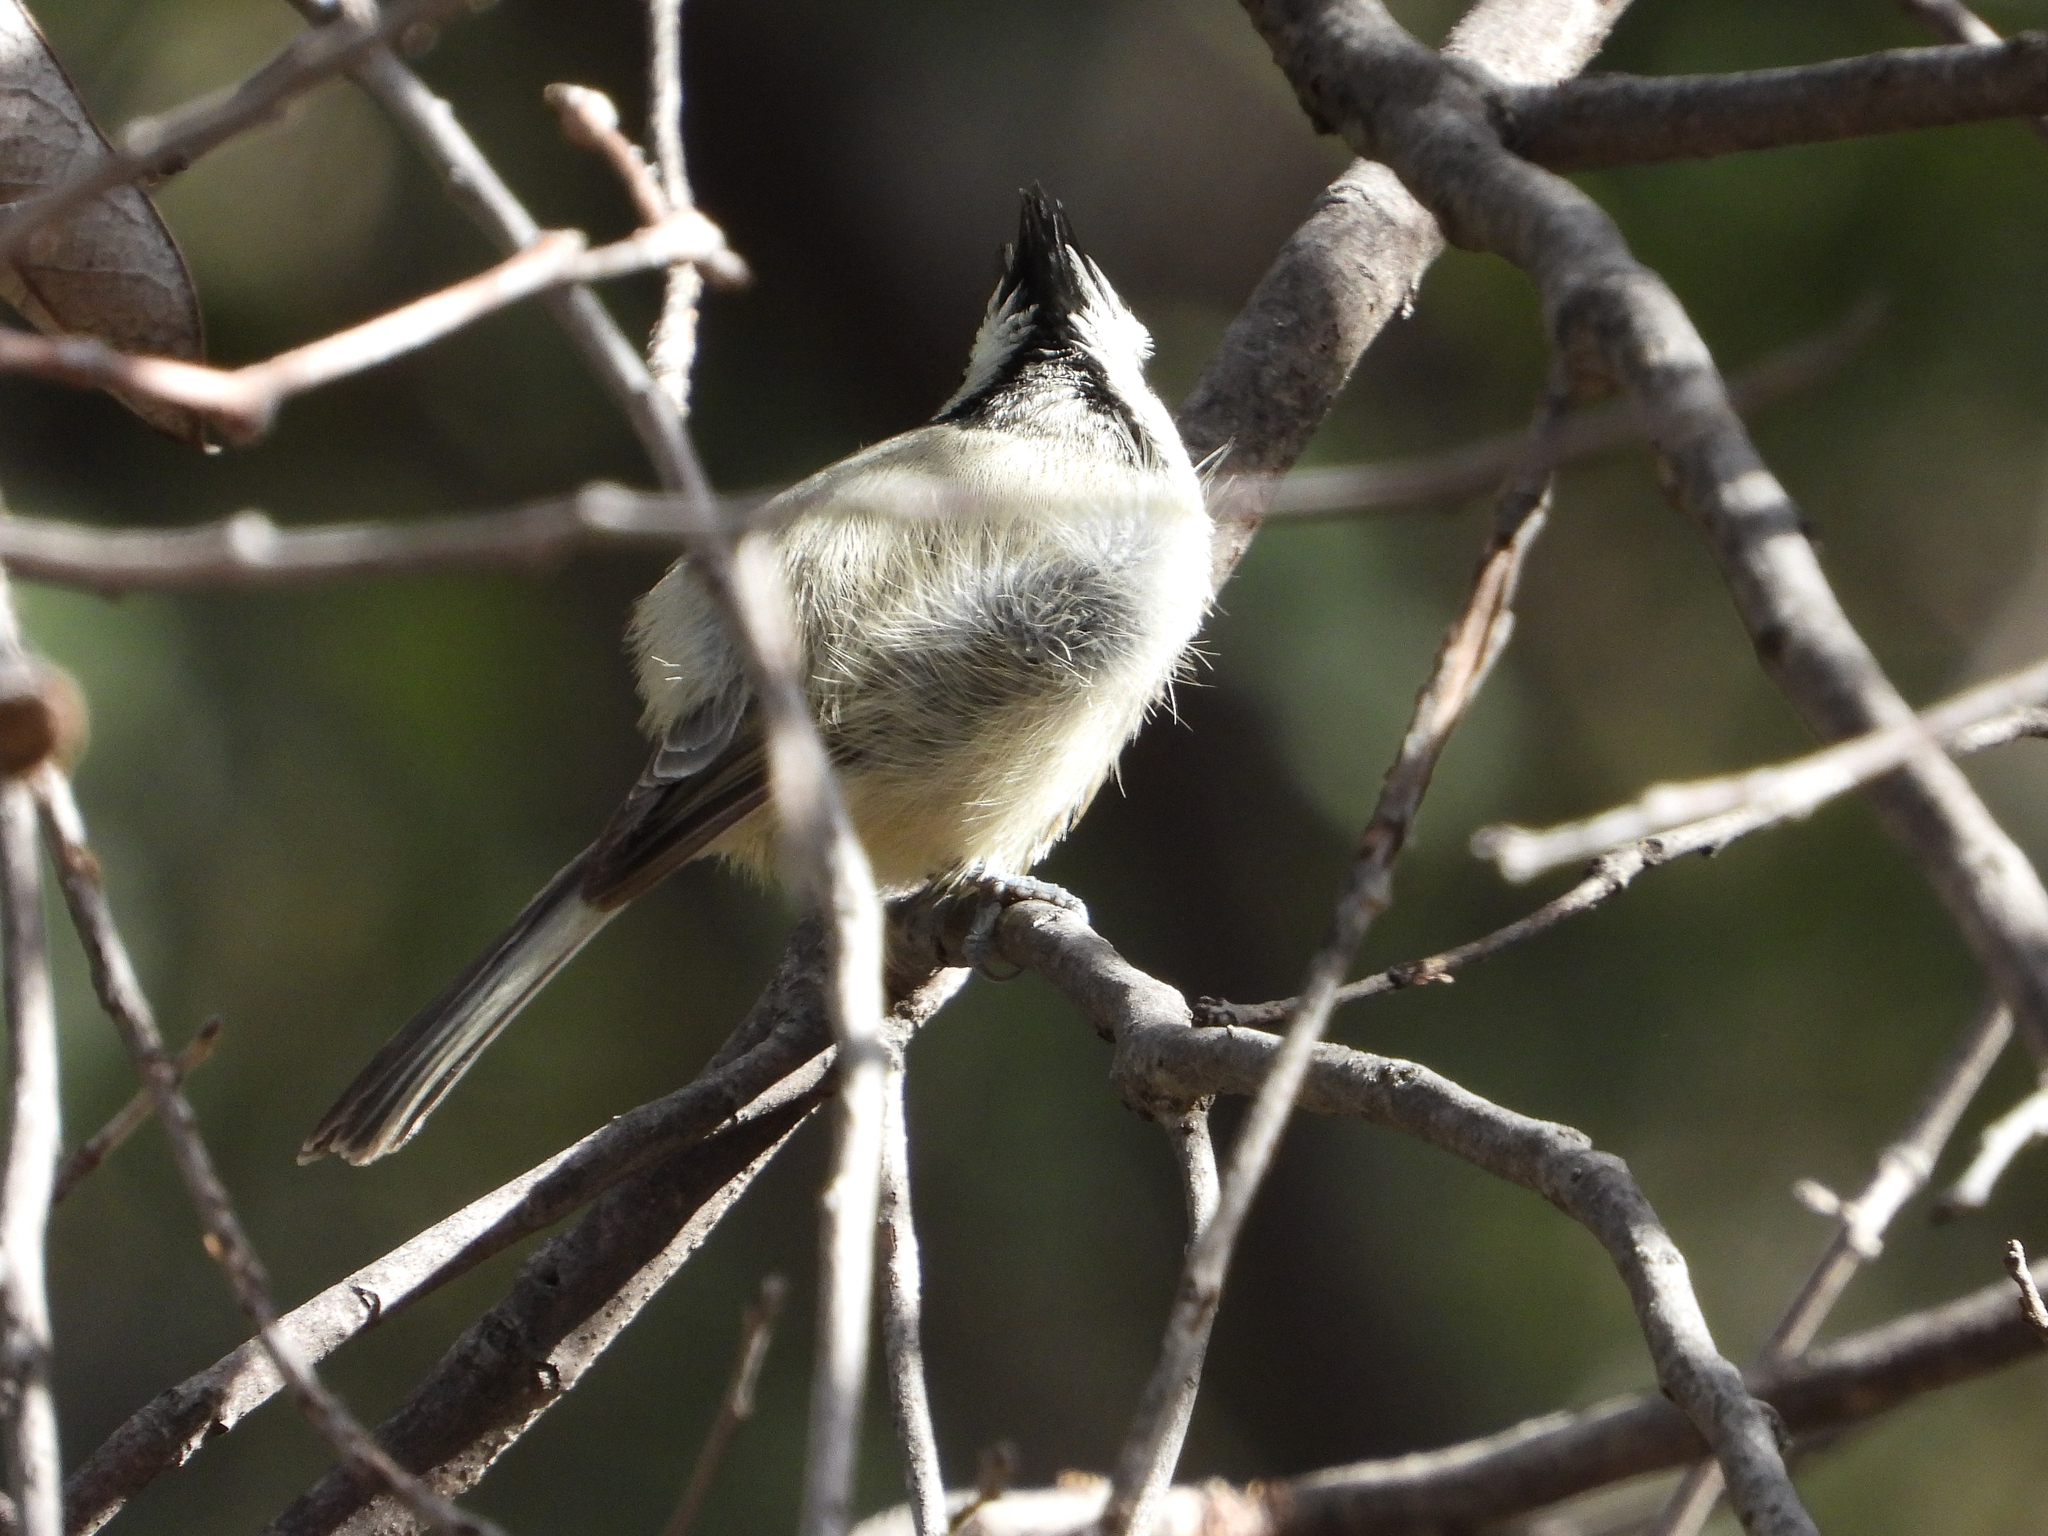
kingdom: Animalia
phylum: Chordata
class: Aves
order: Passeriformes
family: Paridae
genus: Baeolophus
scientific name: Baeolophus wollweberi
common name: Bridled titmouse
